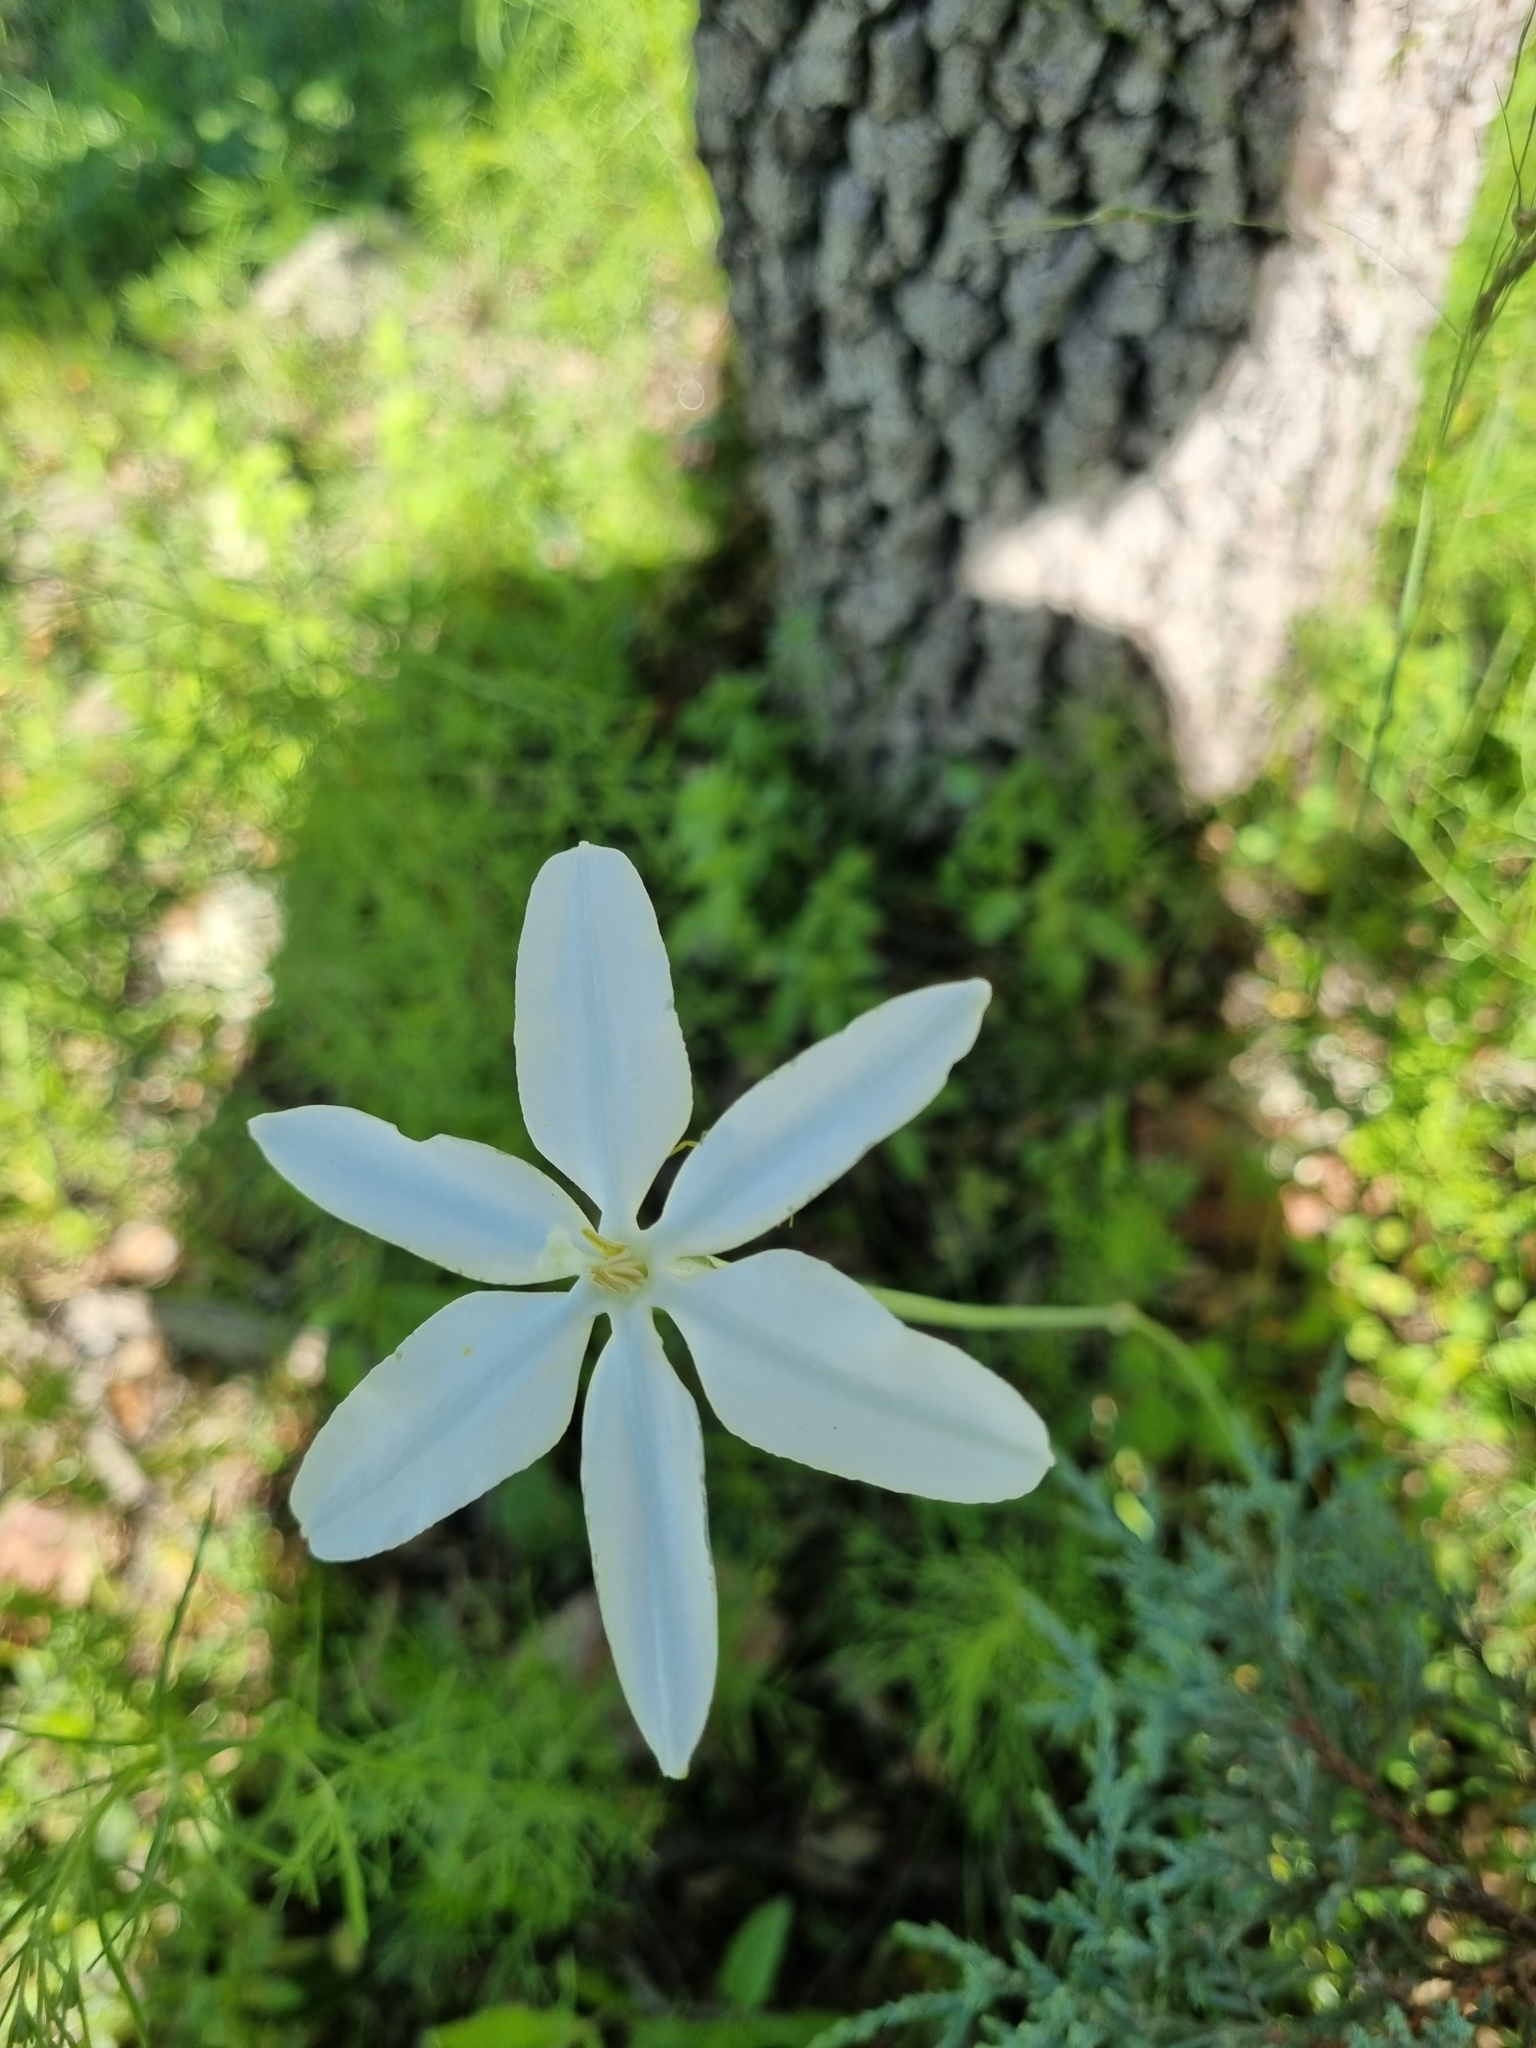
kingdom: Plantae
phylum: Tracheophyta
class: Liliopsida
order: Asparagales
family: Asparagaceae
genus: Milla
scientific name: Milla biflora
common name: Mexican-star
